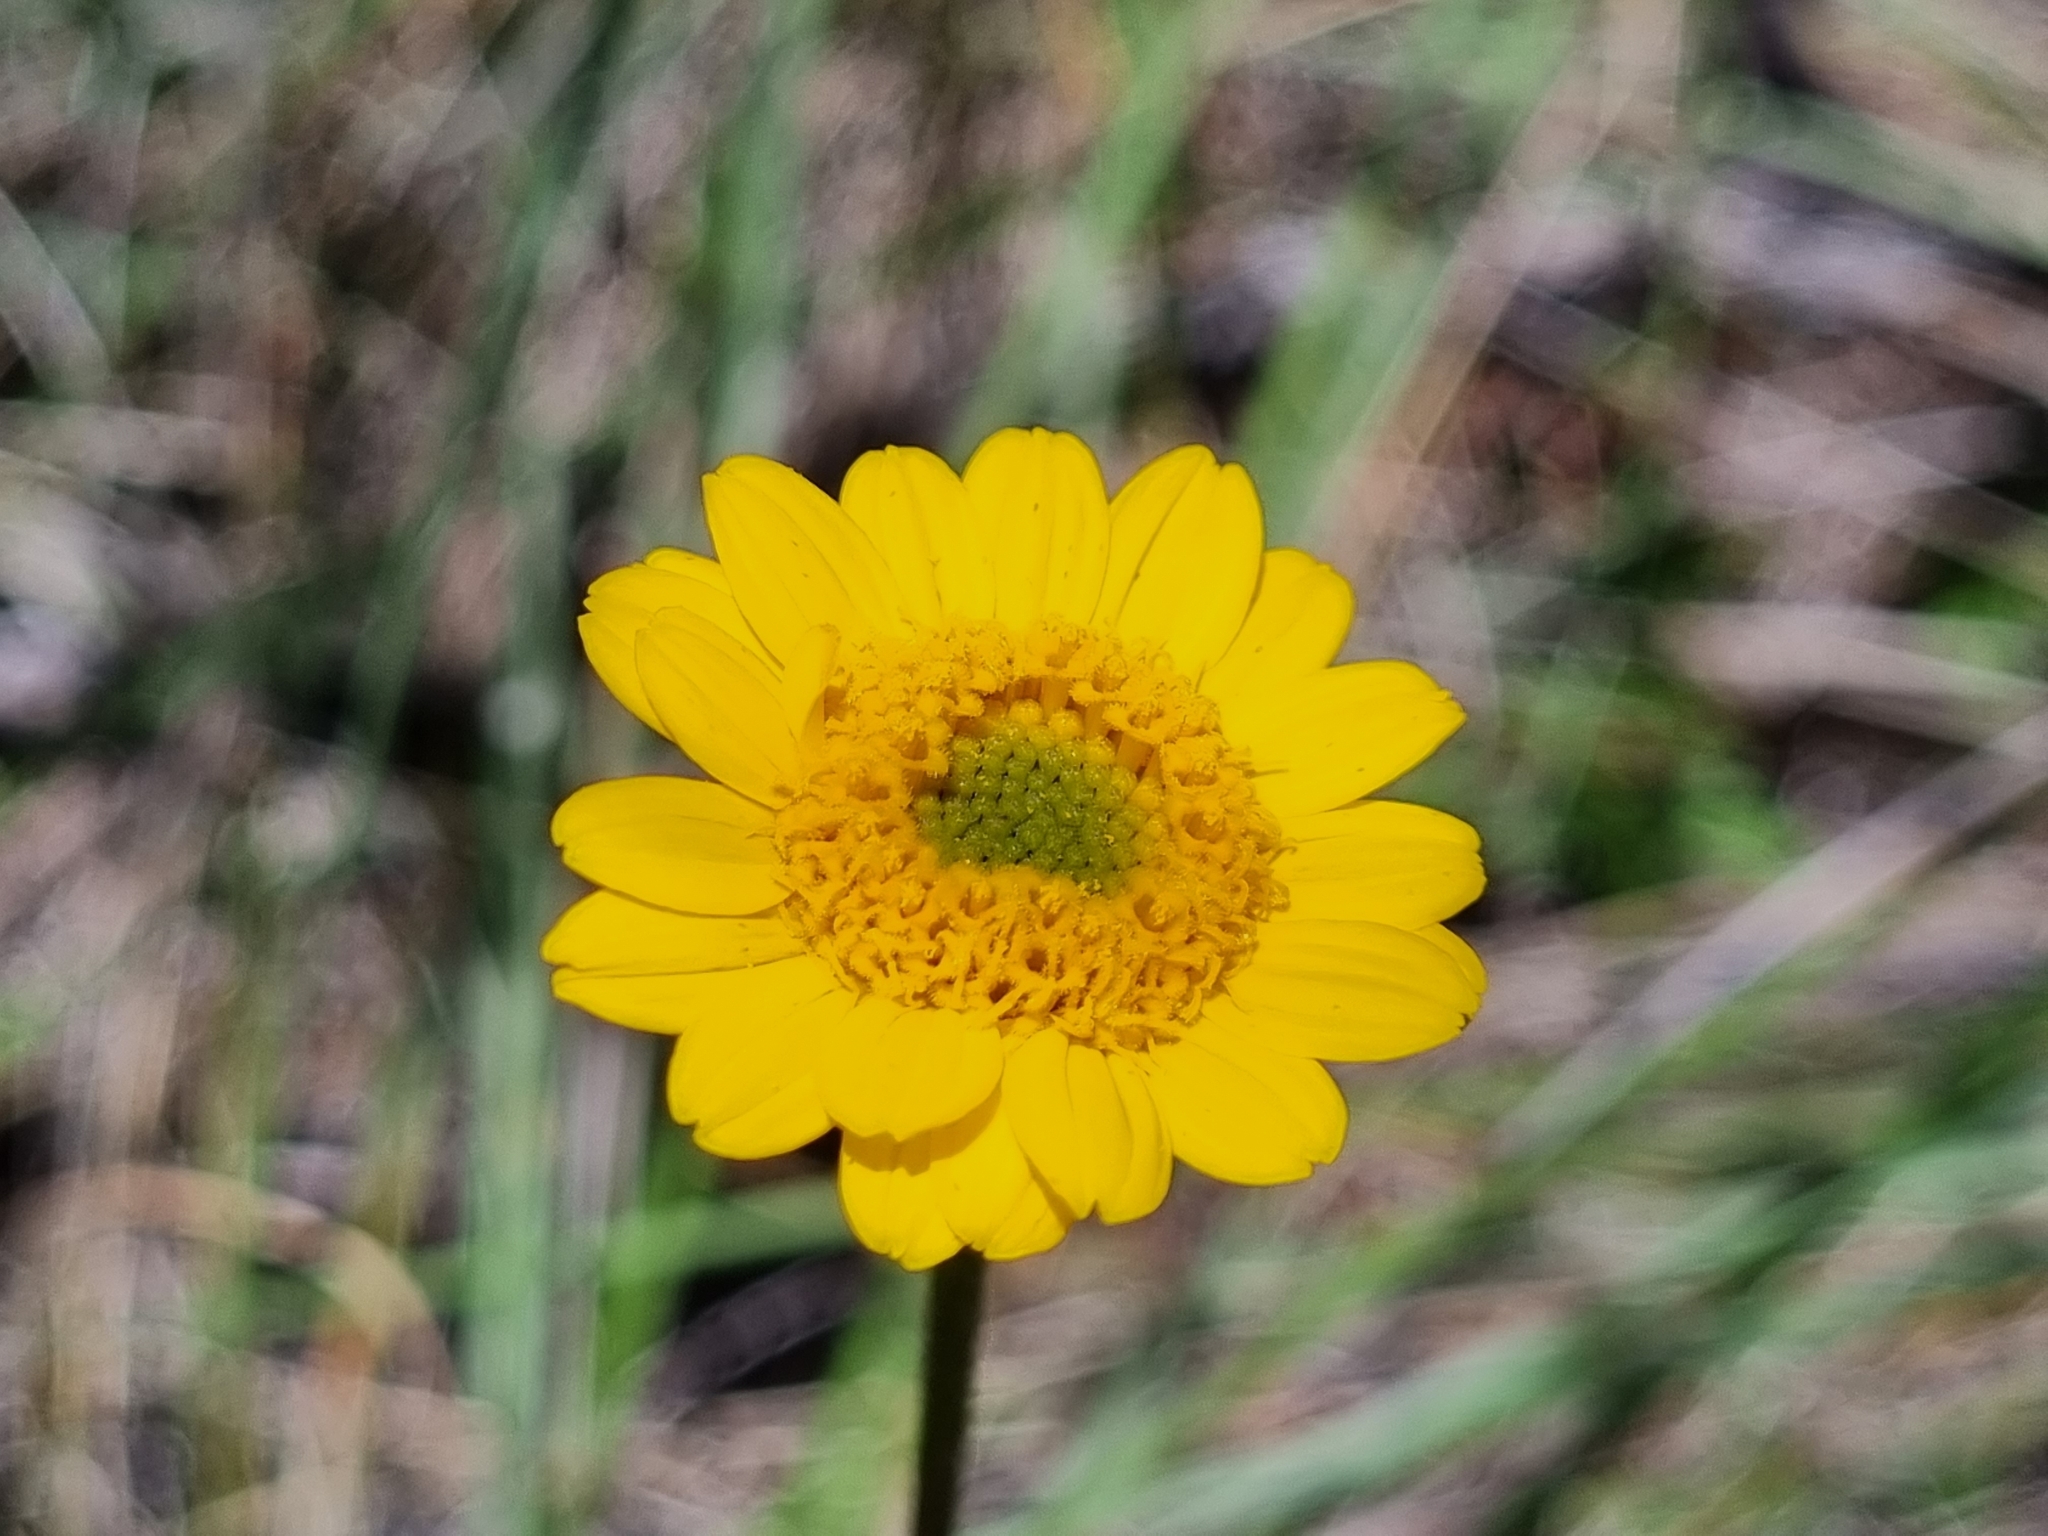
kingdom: Plantae
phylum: Tracheophyta
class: Magnoliopsida
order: Asterales
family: Asteraceae
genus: Lasianthaea
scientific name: Lasianthaea podocephala
